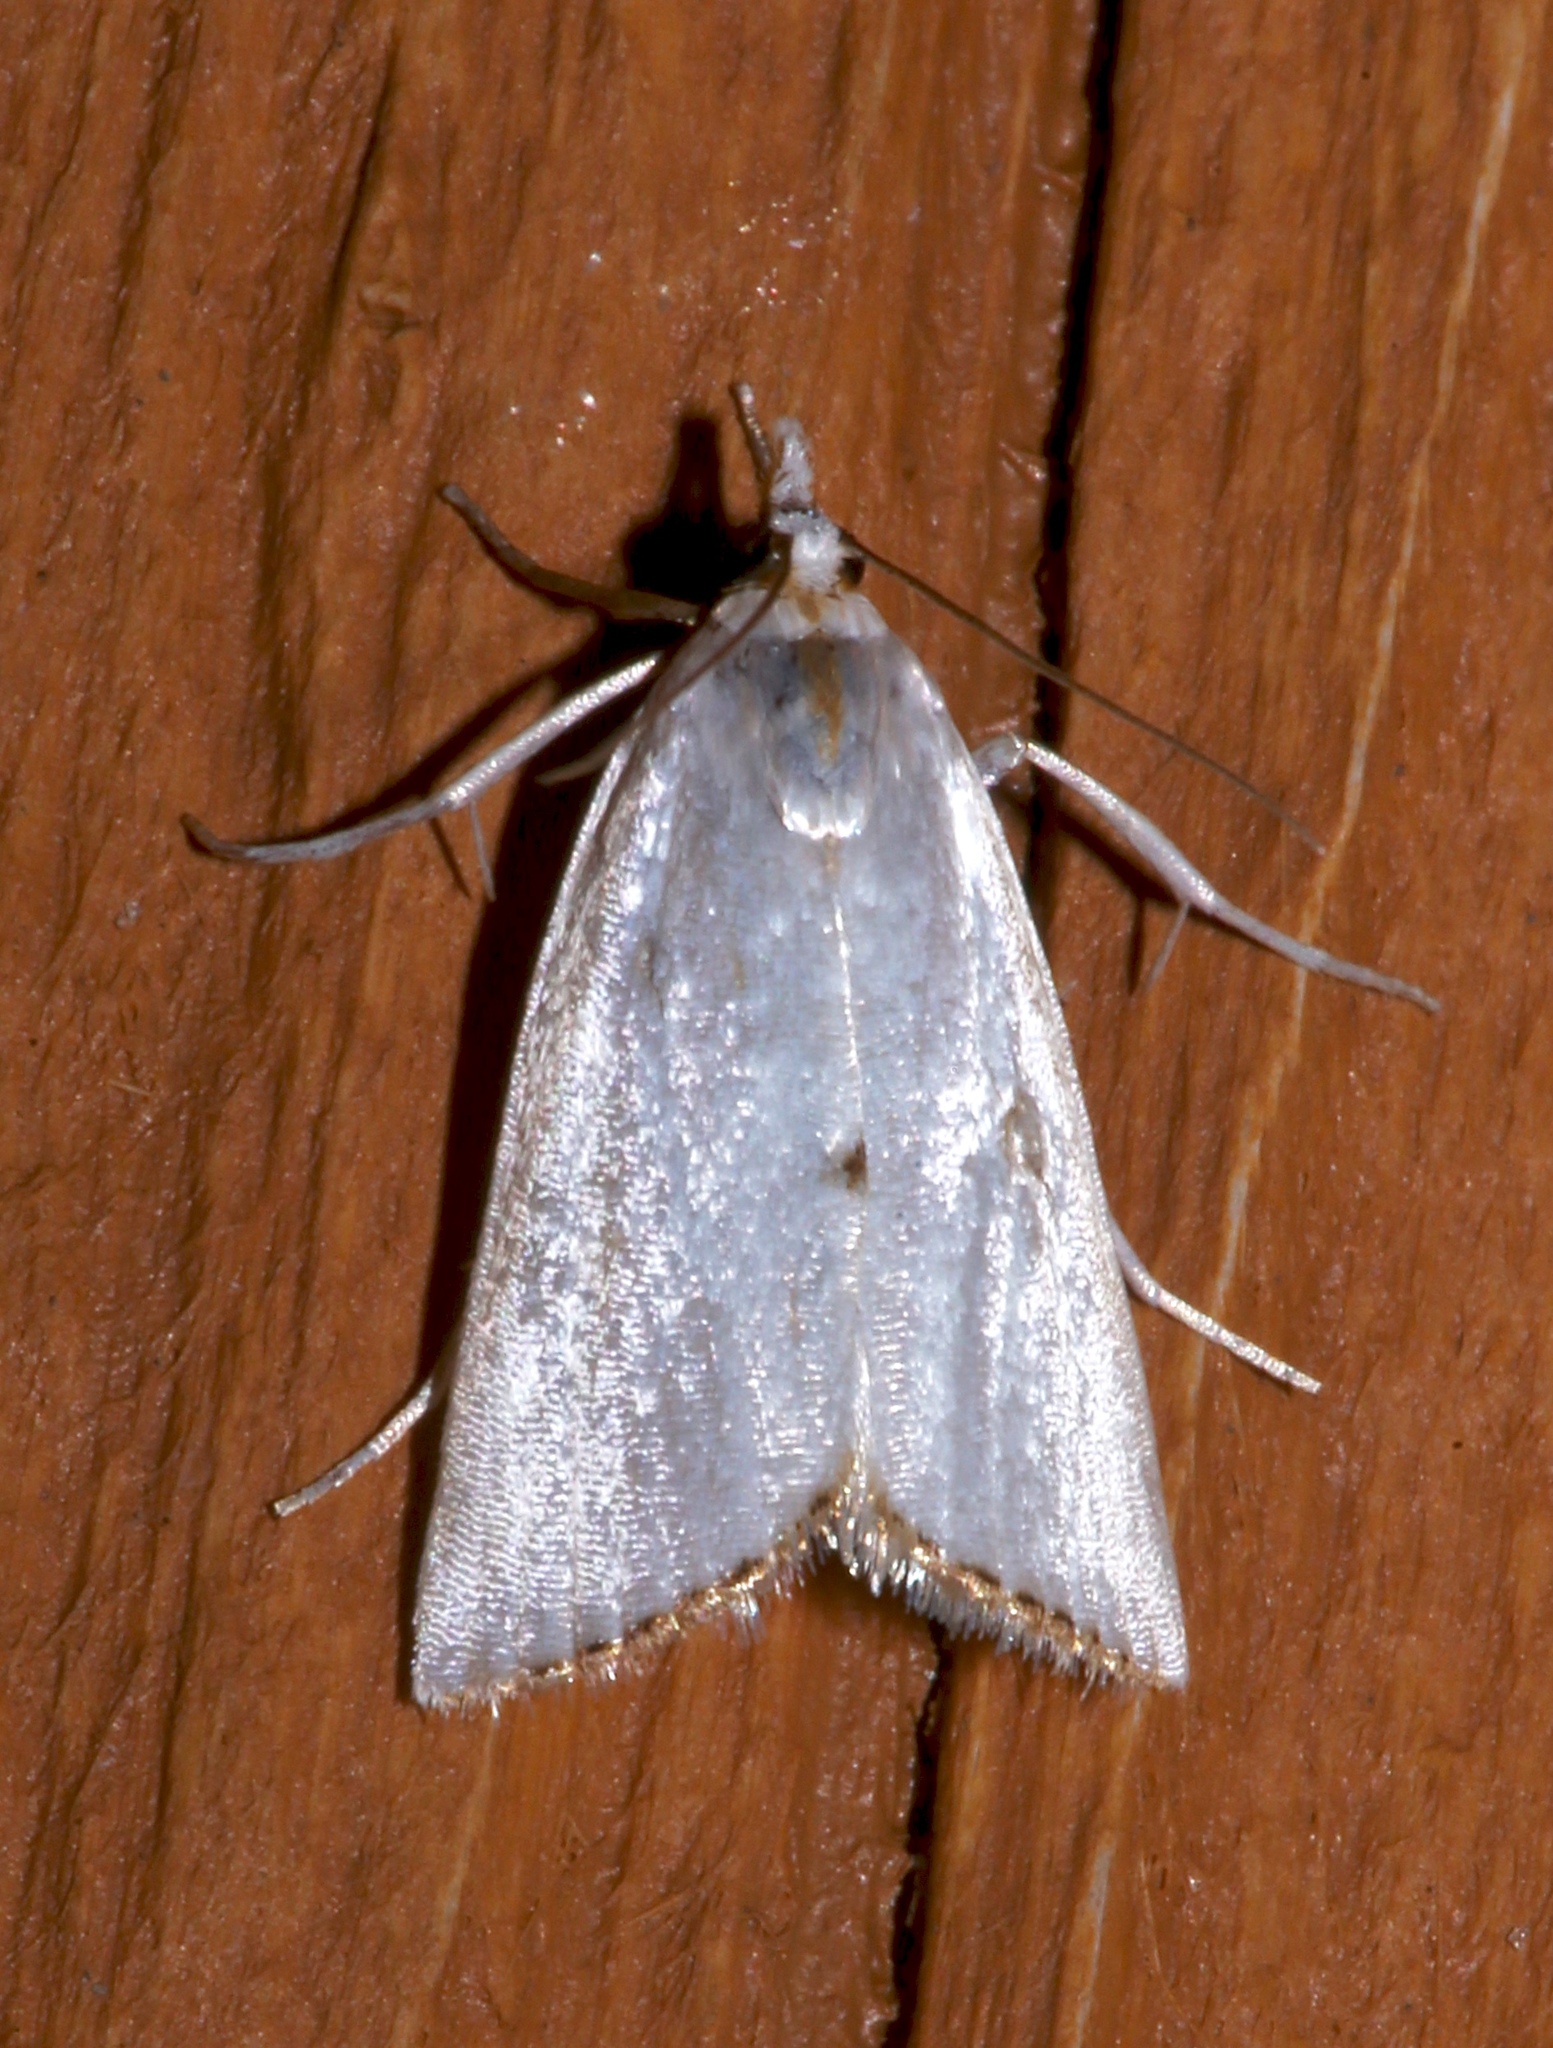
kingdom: Animalia
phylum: Arthropoda
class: Insecta
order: Lepidoptera
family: Crambidae
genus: Argyria
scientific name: Argyria nivalis
